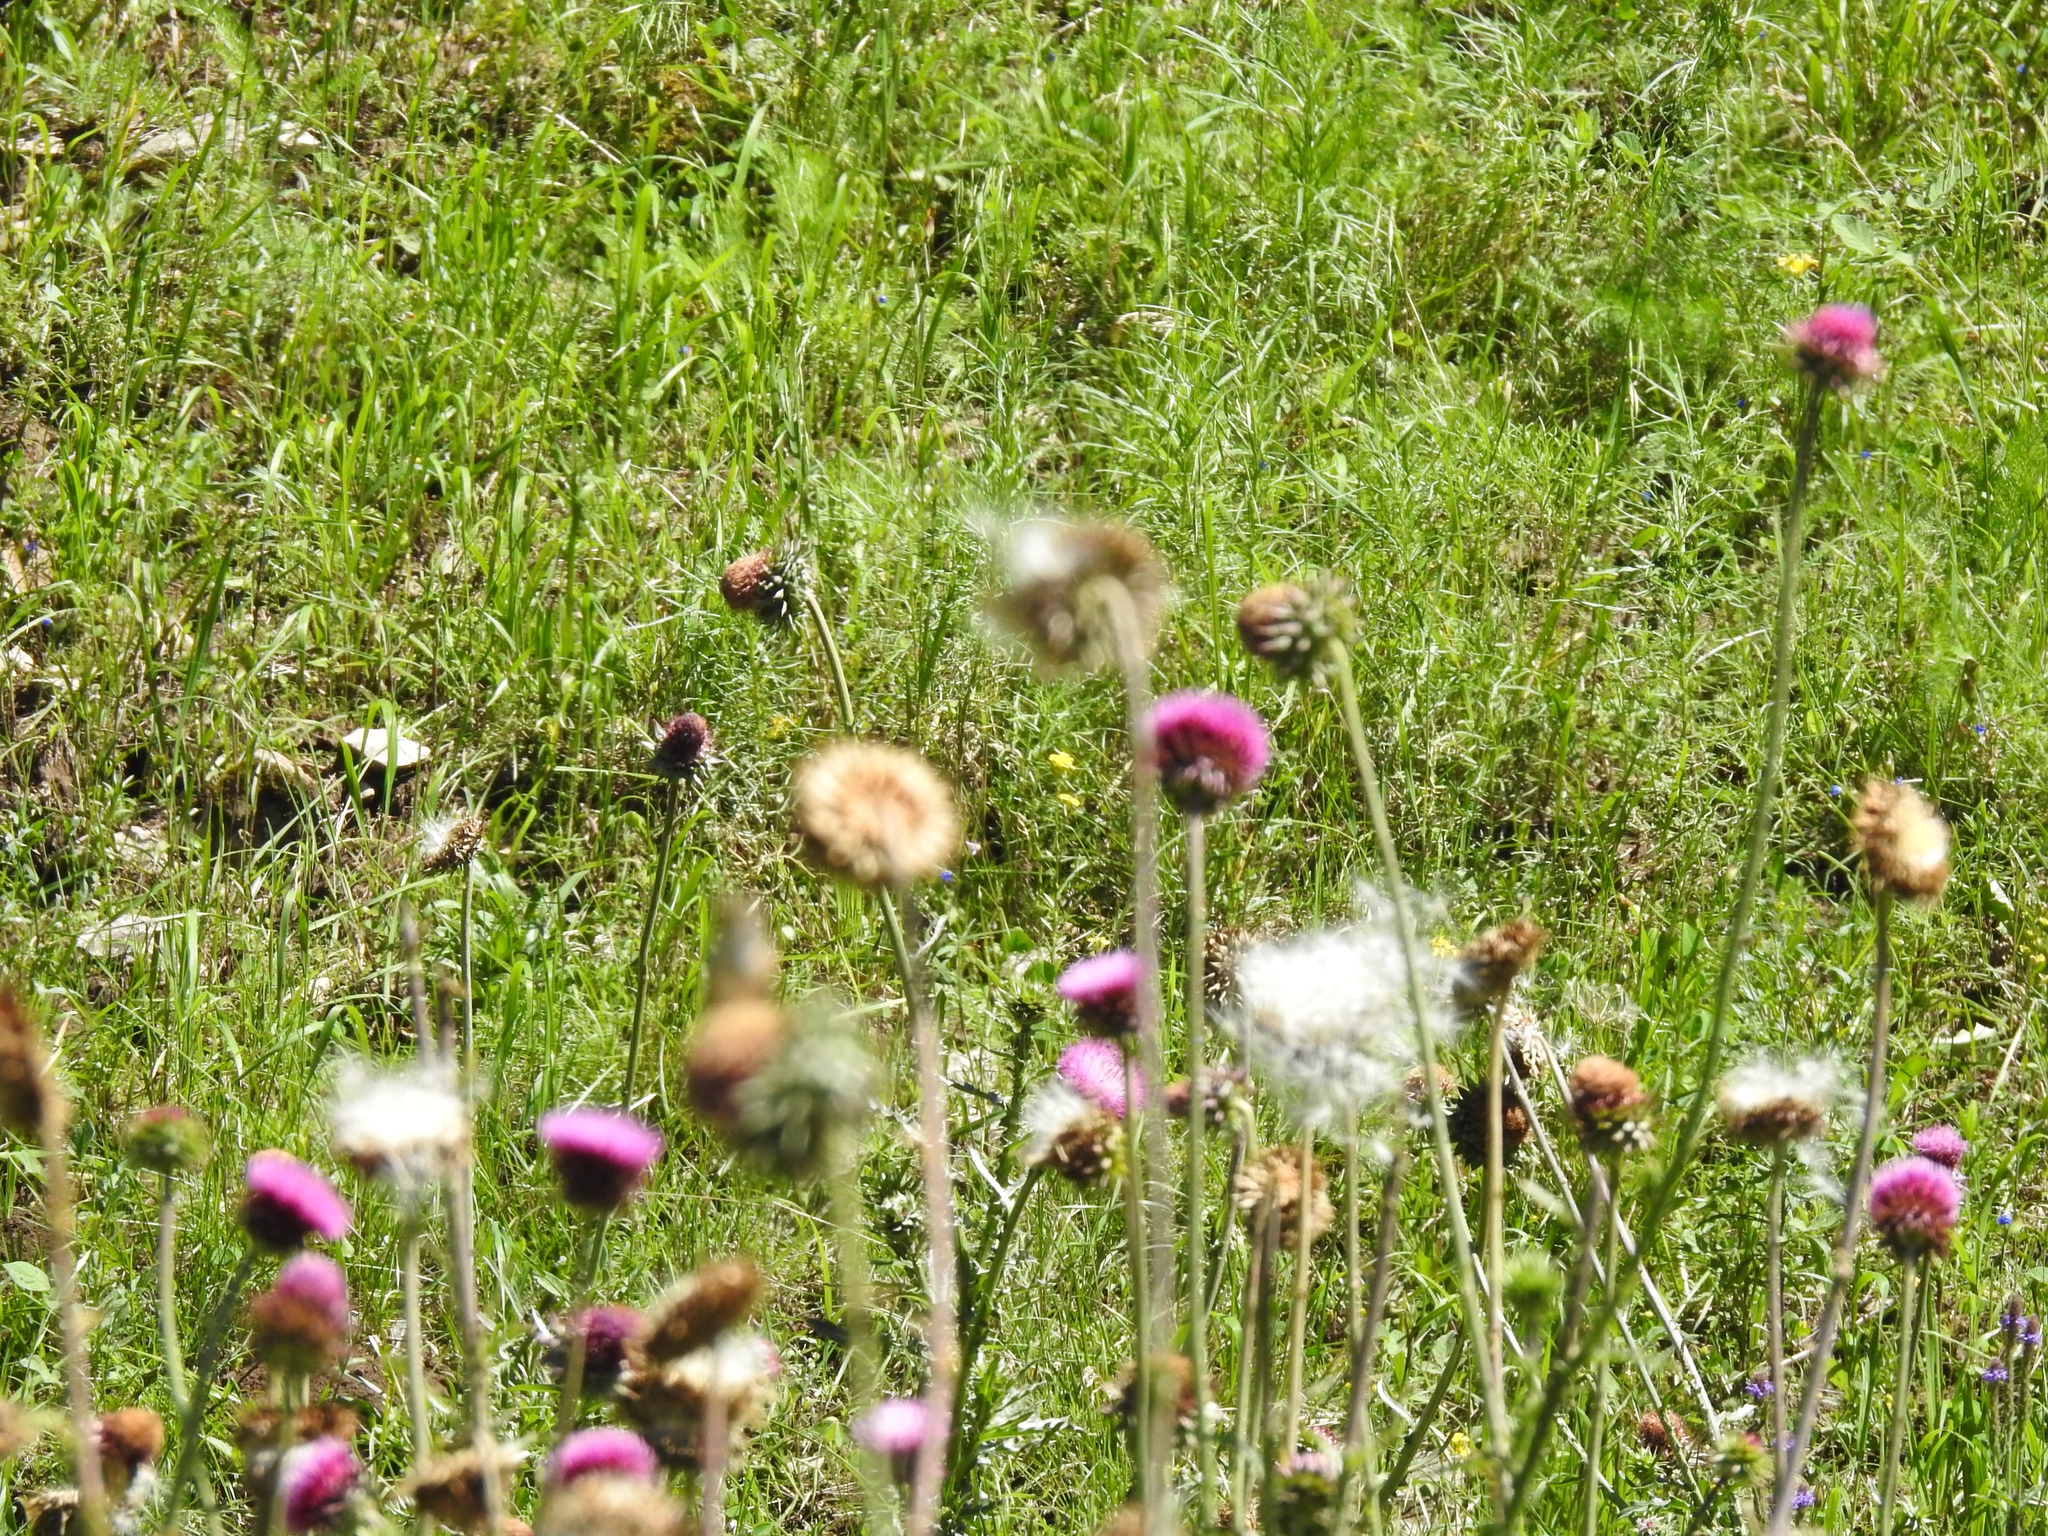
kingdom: Plantae
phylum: Tracheophyta
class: Magnoliopsida
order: Asterales
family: Asteraceae
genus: Carduus
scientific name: Carduus nutans
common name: Musk thistle
